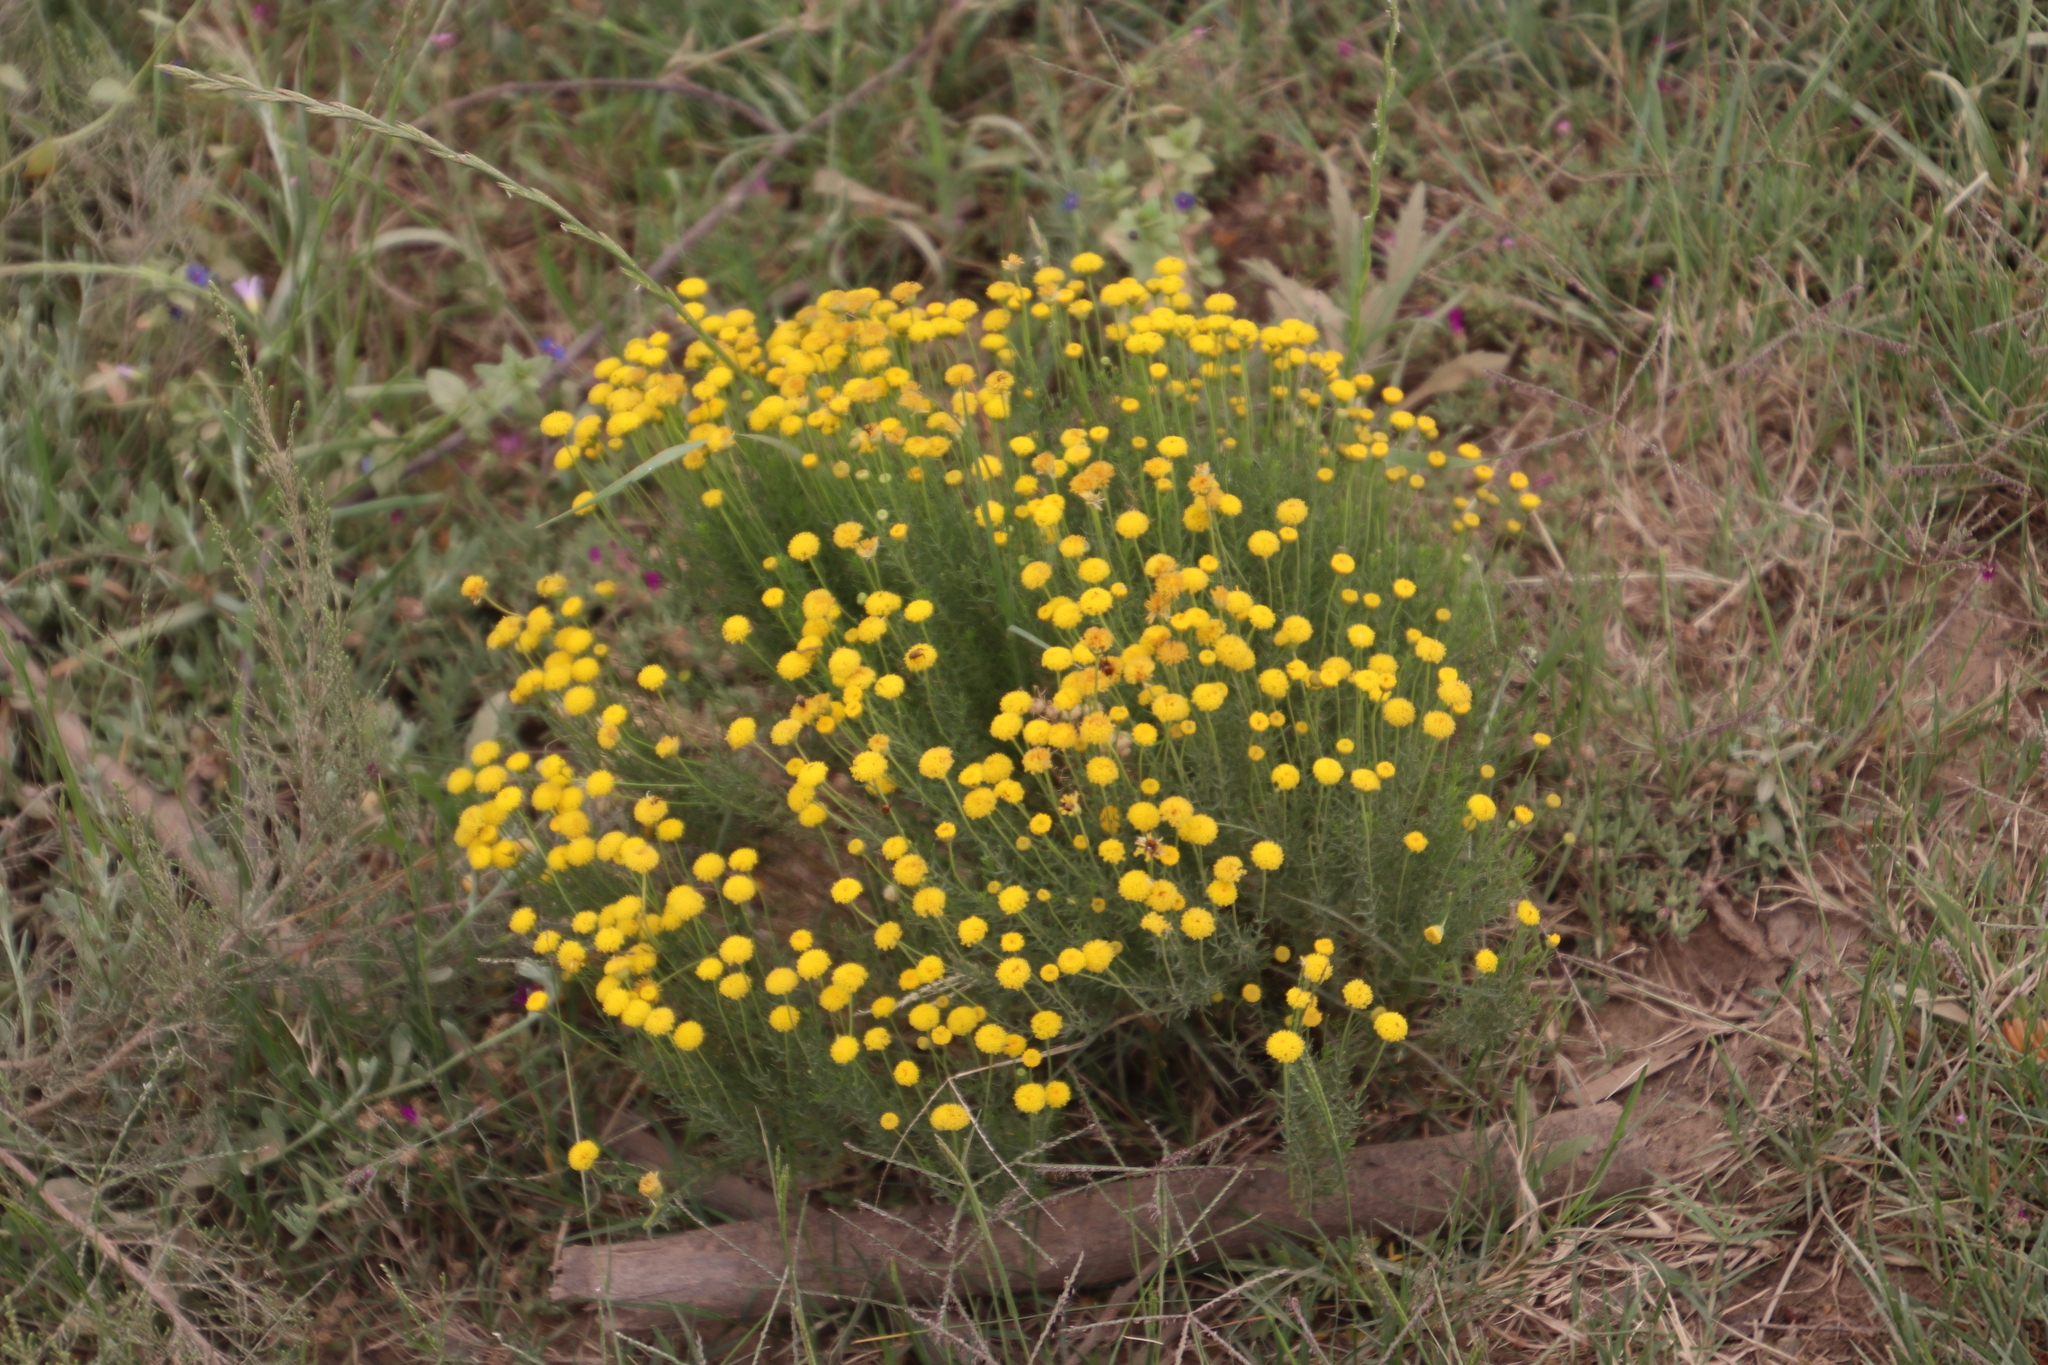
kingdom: Plantae
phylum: Tracheophyta
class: Magnoliopsida
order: Asterales
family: Asteraceae
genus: Chrysocoma
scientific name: Chrysocoma ciliata
